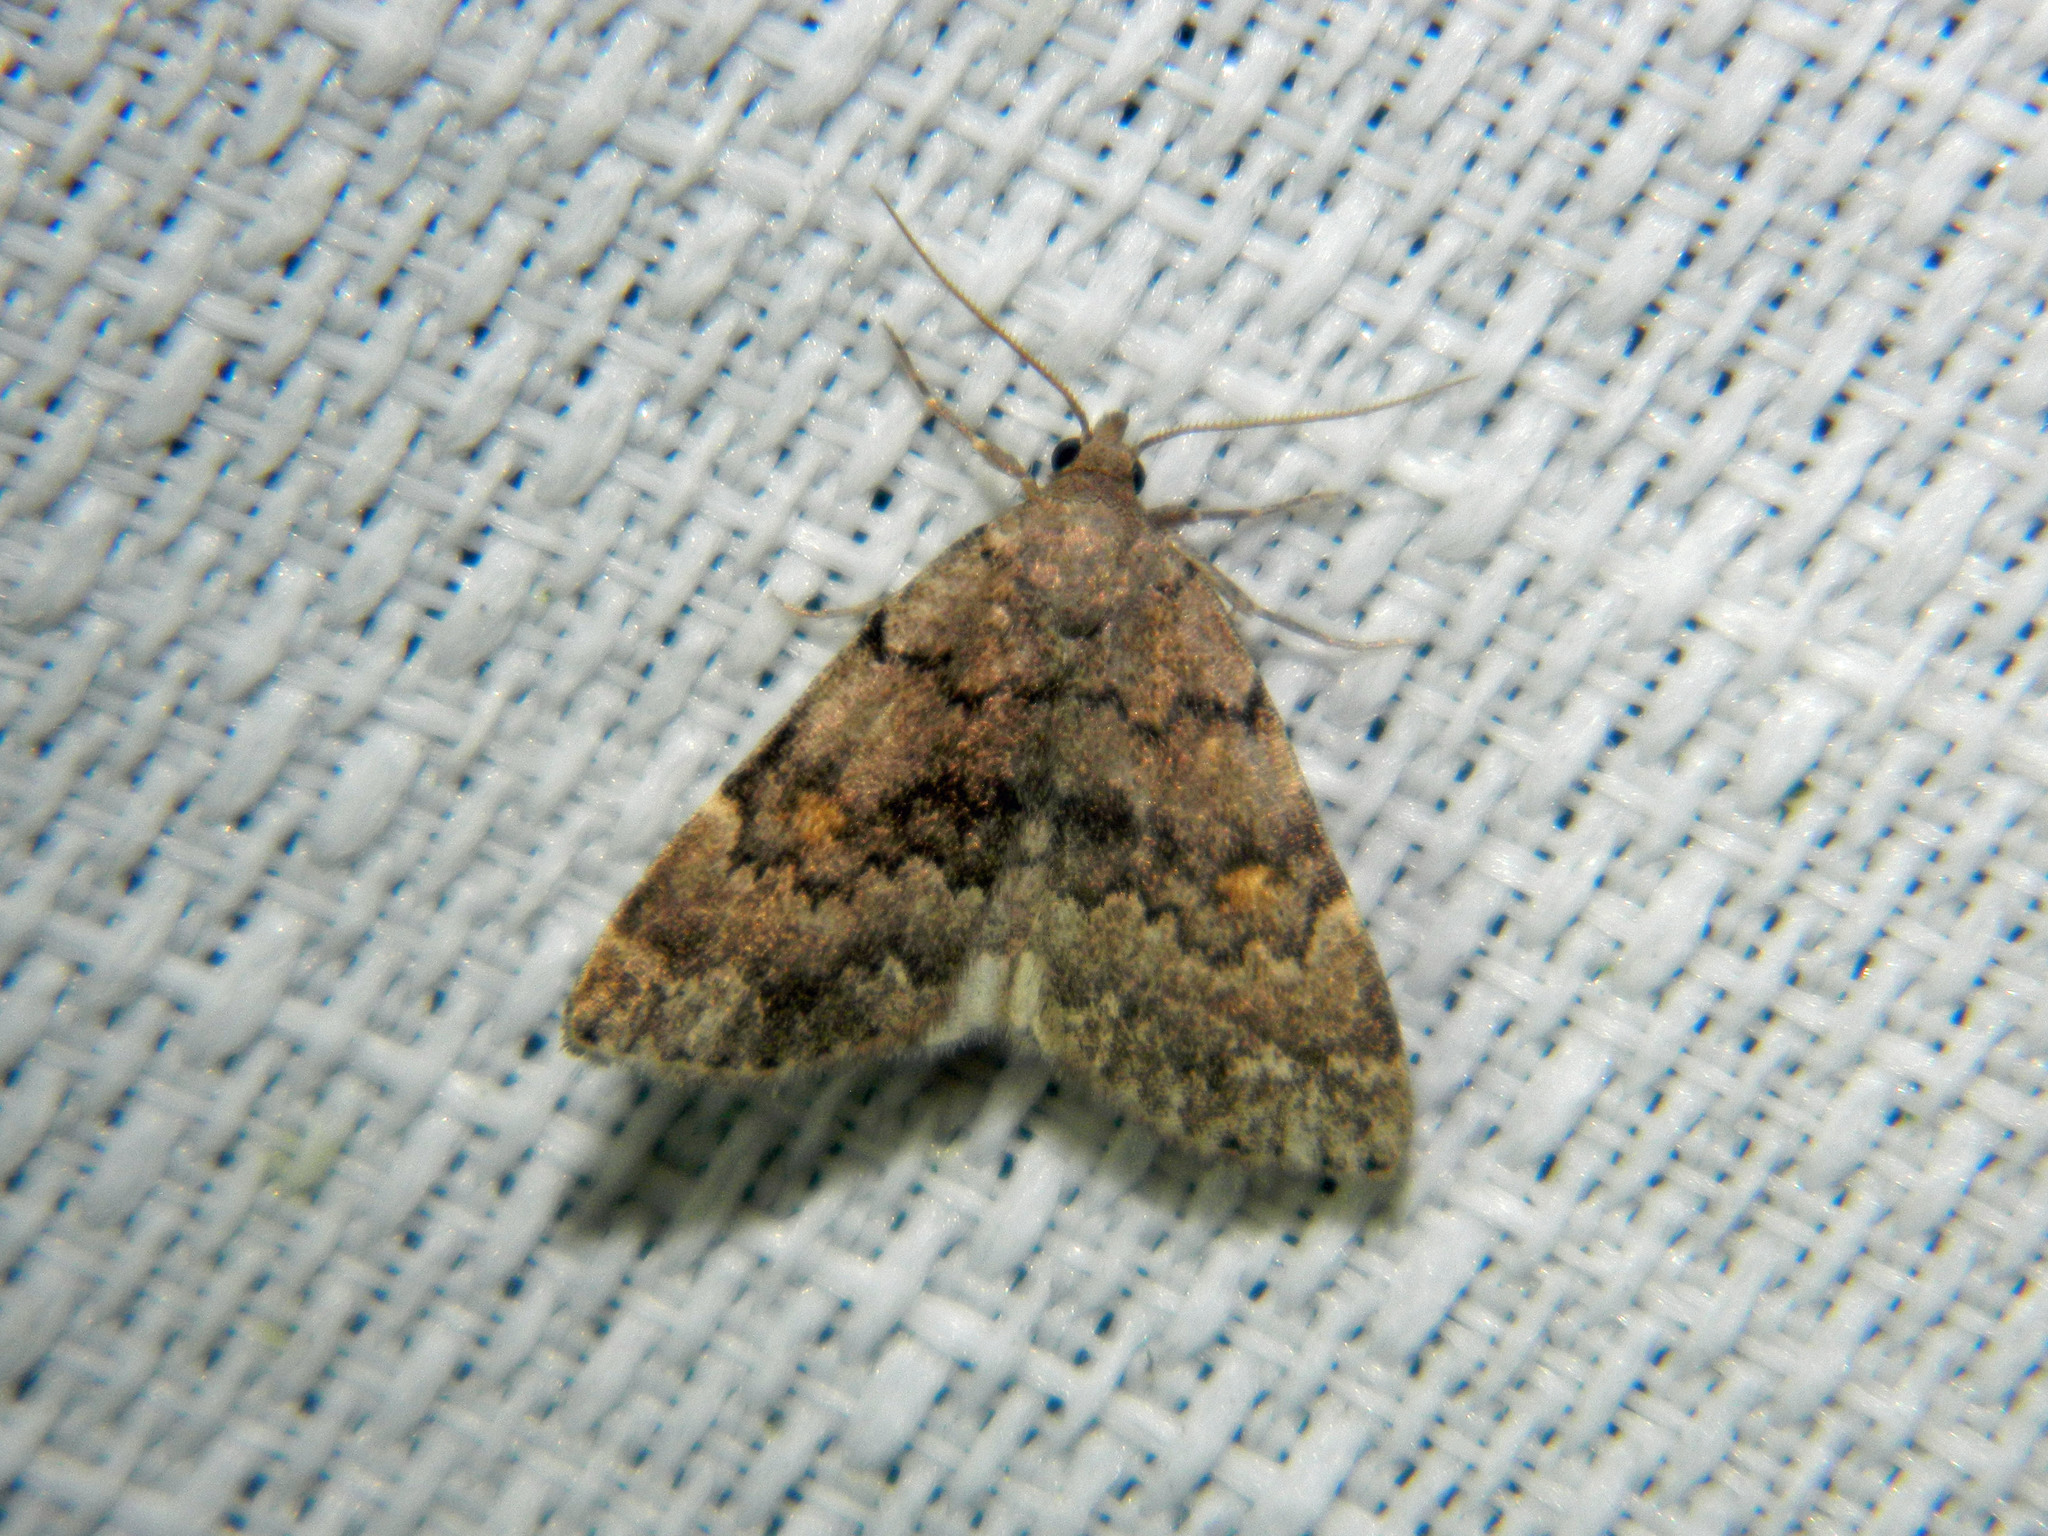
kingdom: Animalia
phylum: Arthropoda
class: Insecta
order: Lepidoptera
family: Erebidae
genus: Idia
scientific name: Idia aemula
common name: Common idia moth
